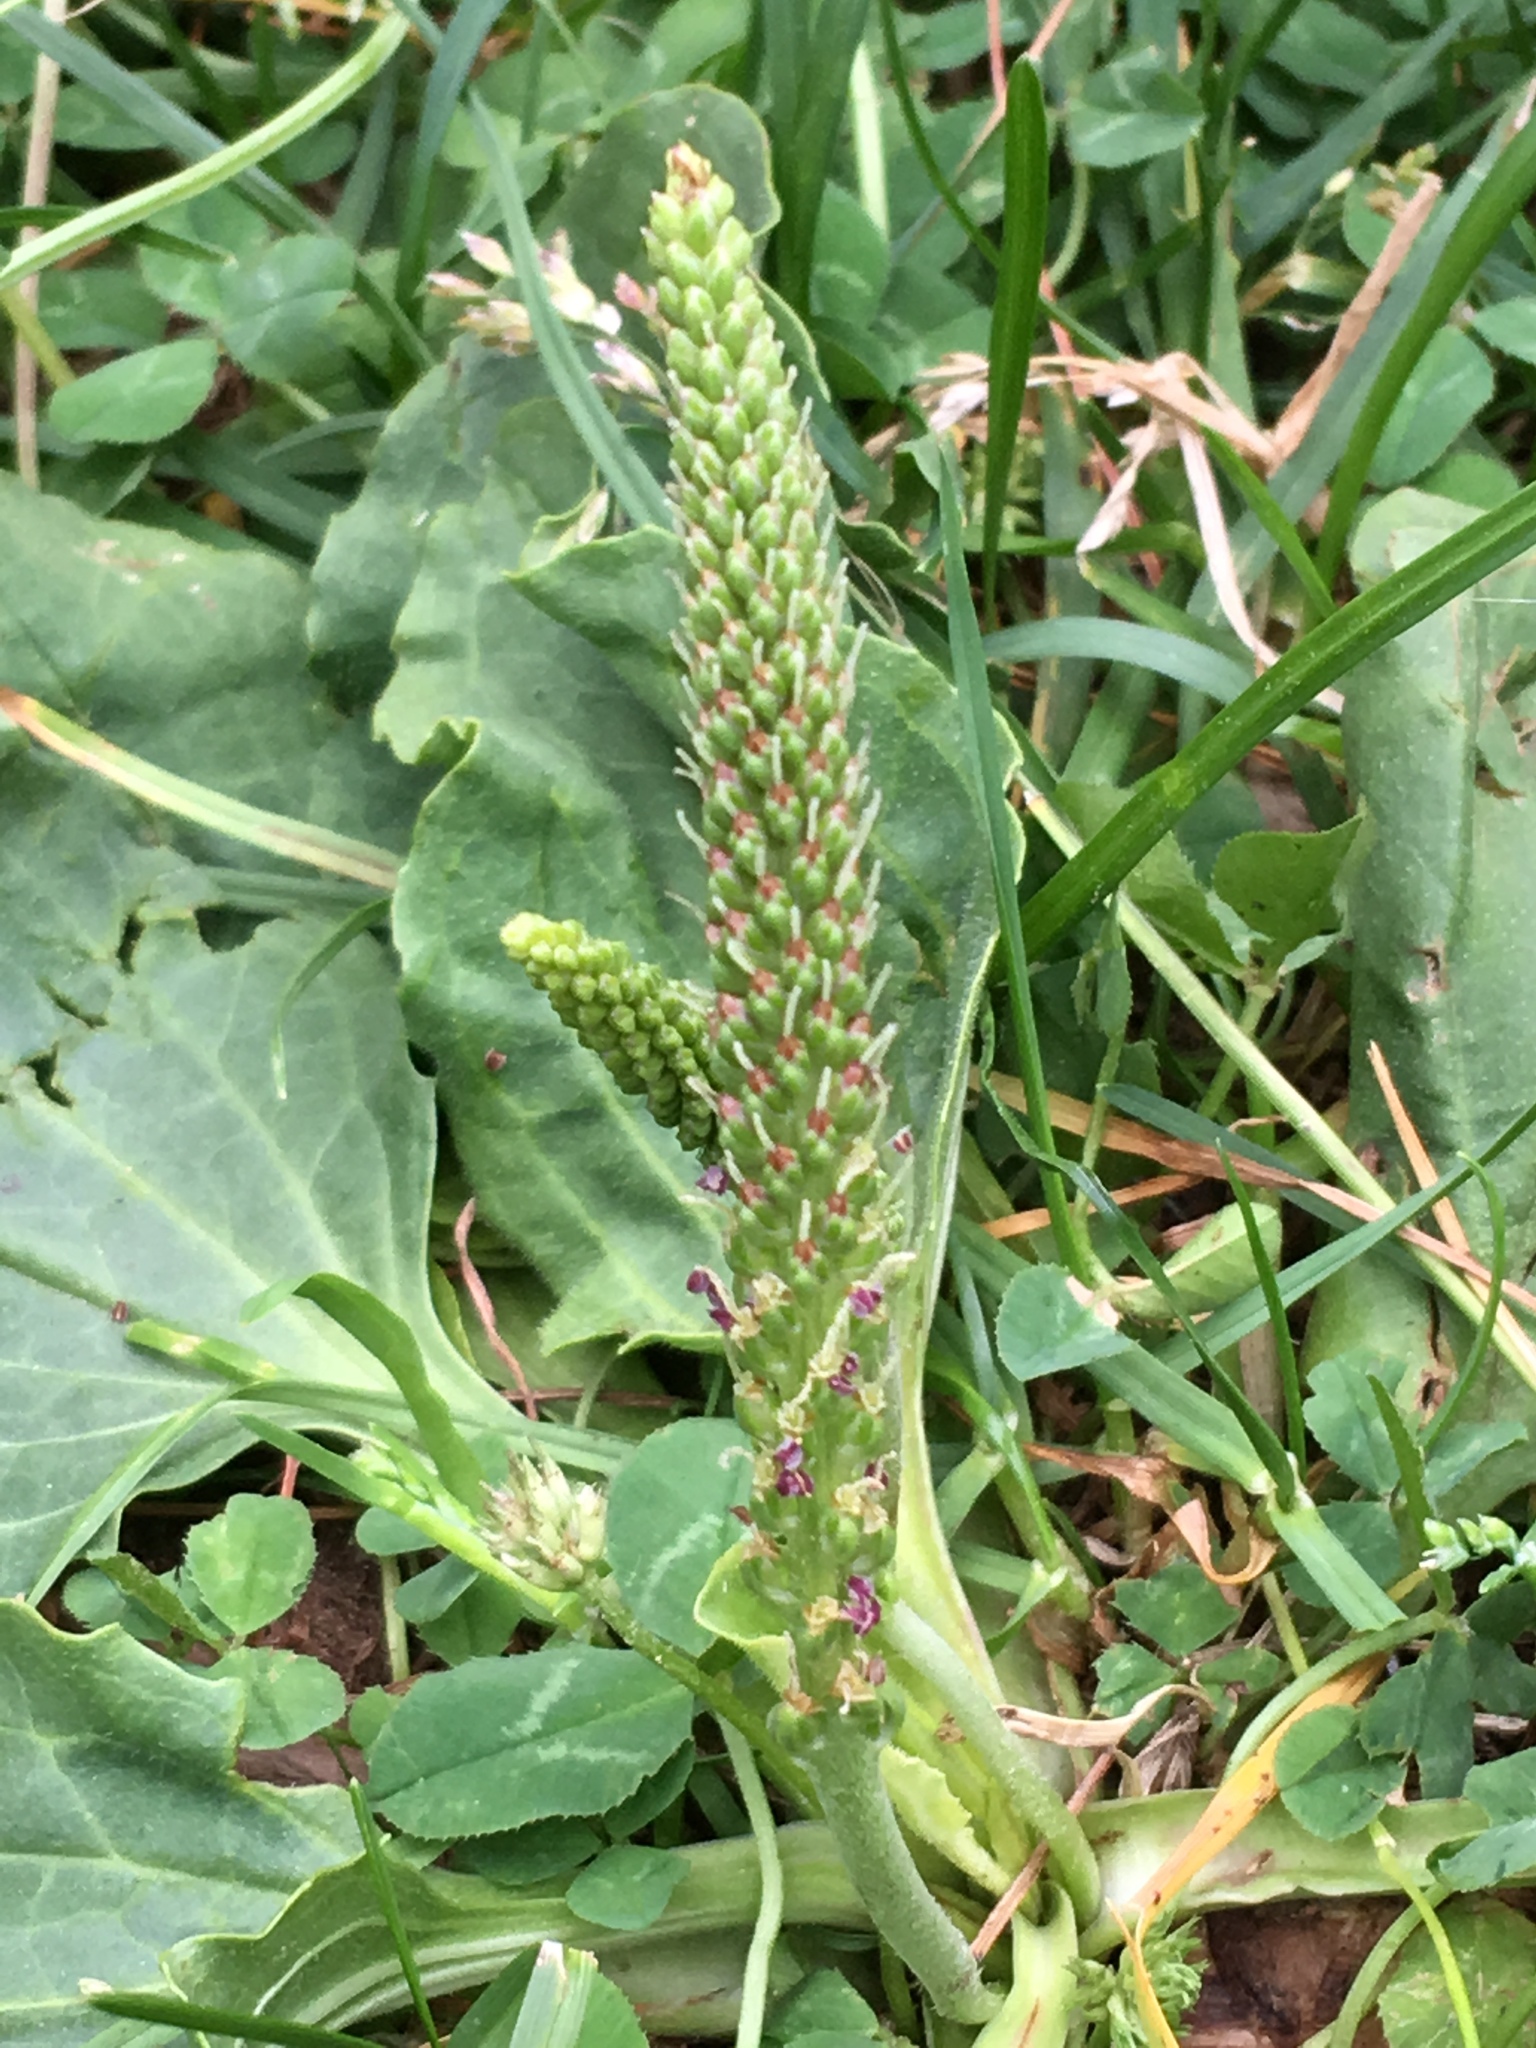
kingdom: Plantae
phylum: Tracheophyta
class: Magnoliopsida
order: Lamiales
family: Plantaginaceae
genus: Plantago
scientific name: Plantago major
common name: Common plantain
